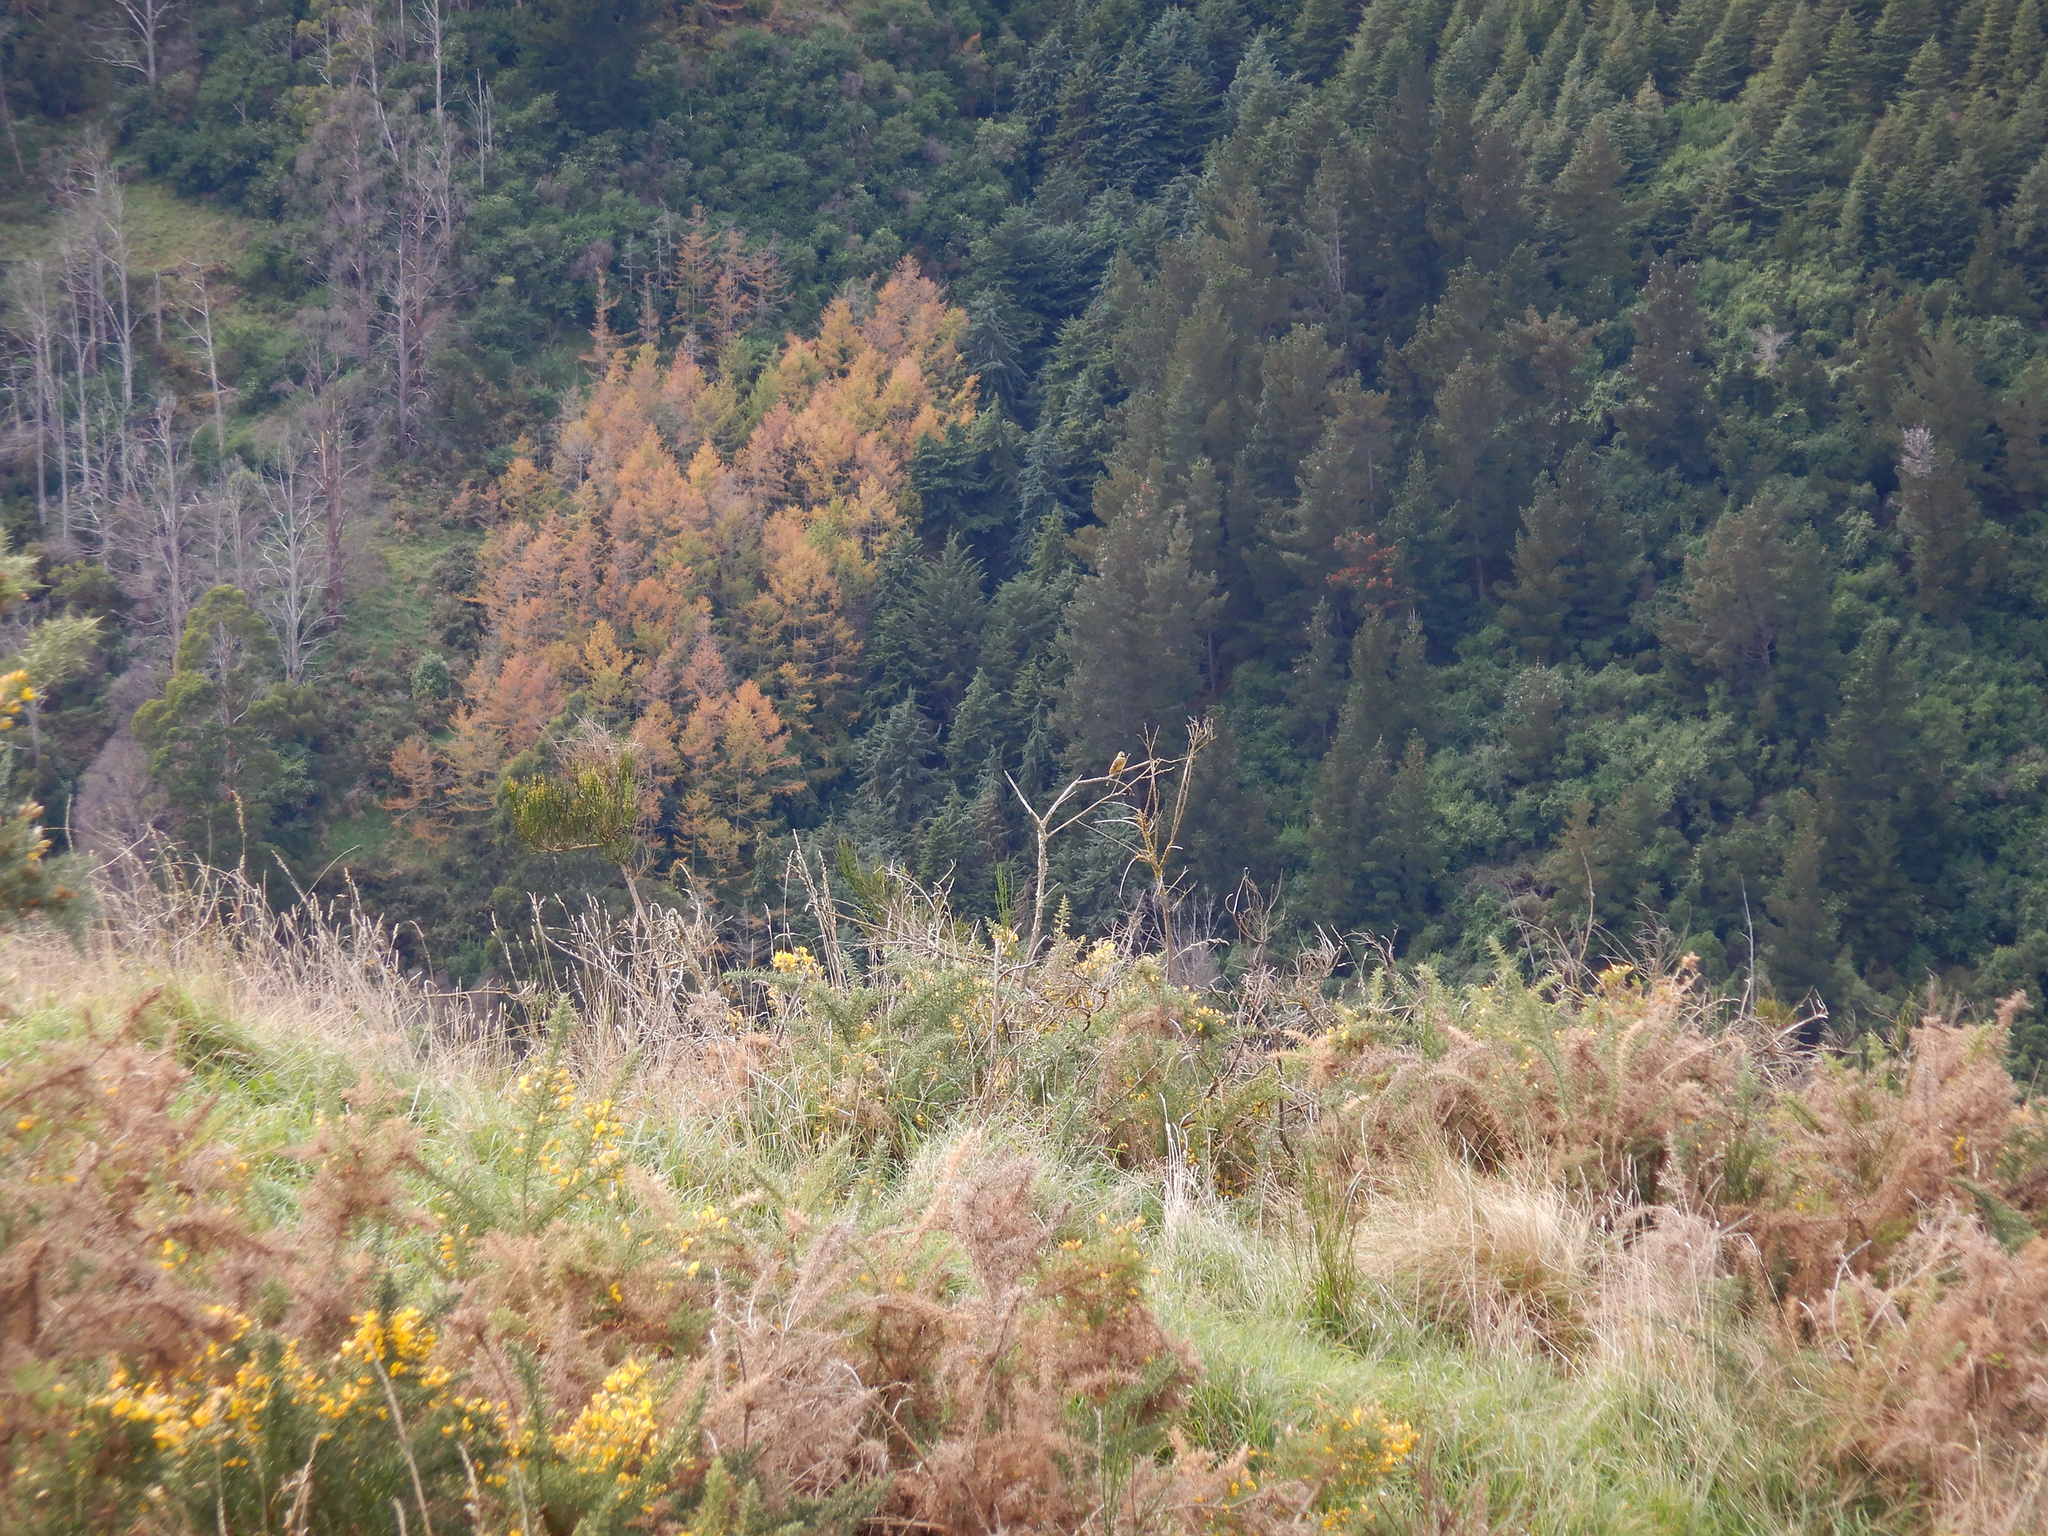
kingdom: Animalia
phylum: Chordata
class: Aves
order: Passeriformes
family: Emberizidae
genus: Emberiza
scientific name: Emberiza citrinella
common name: Yellowhammer
